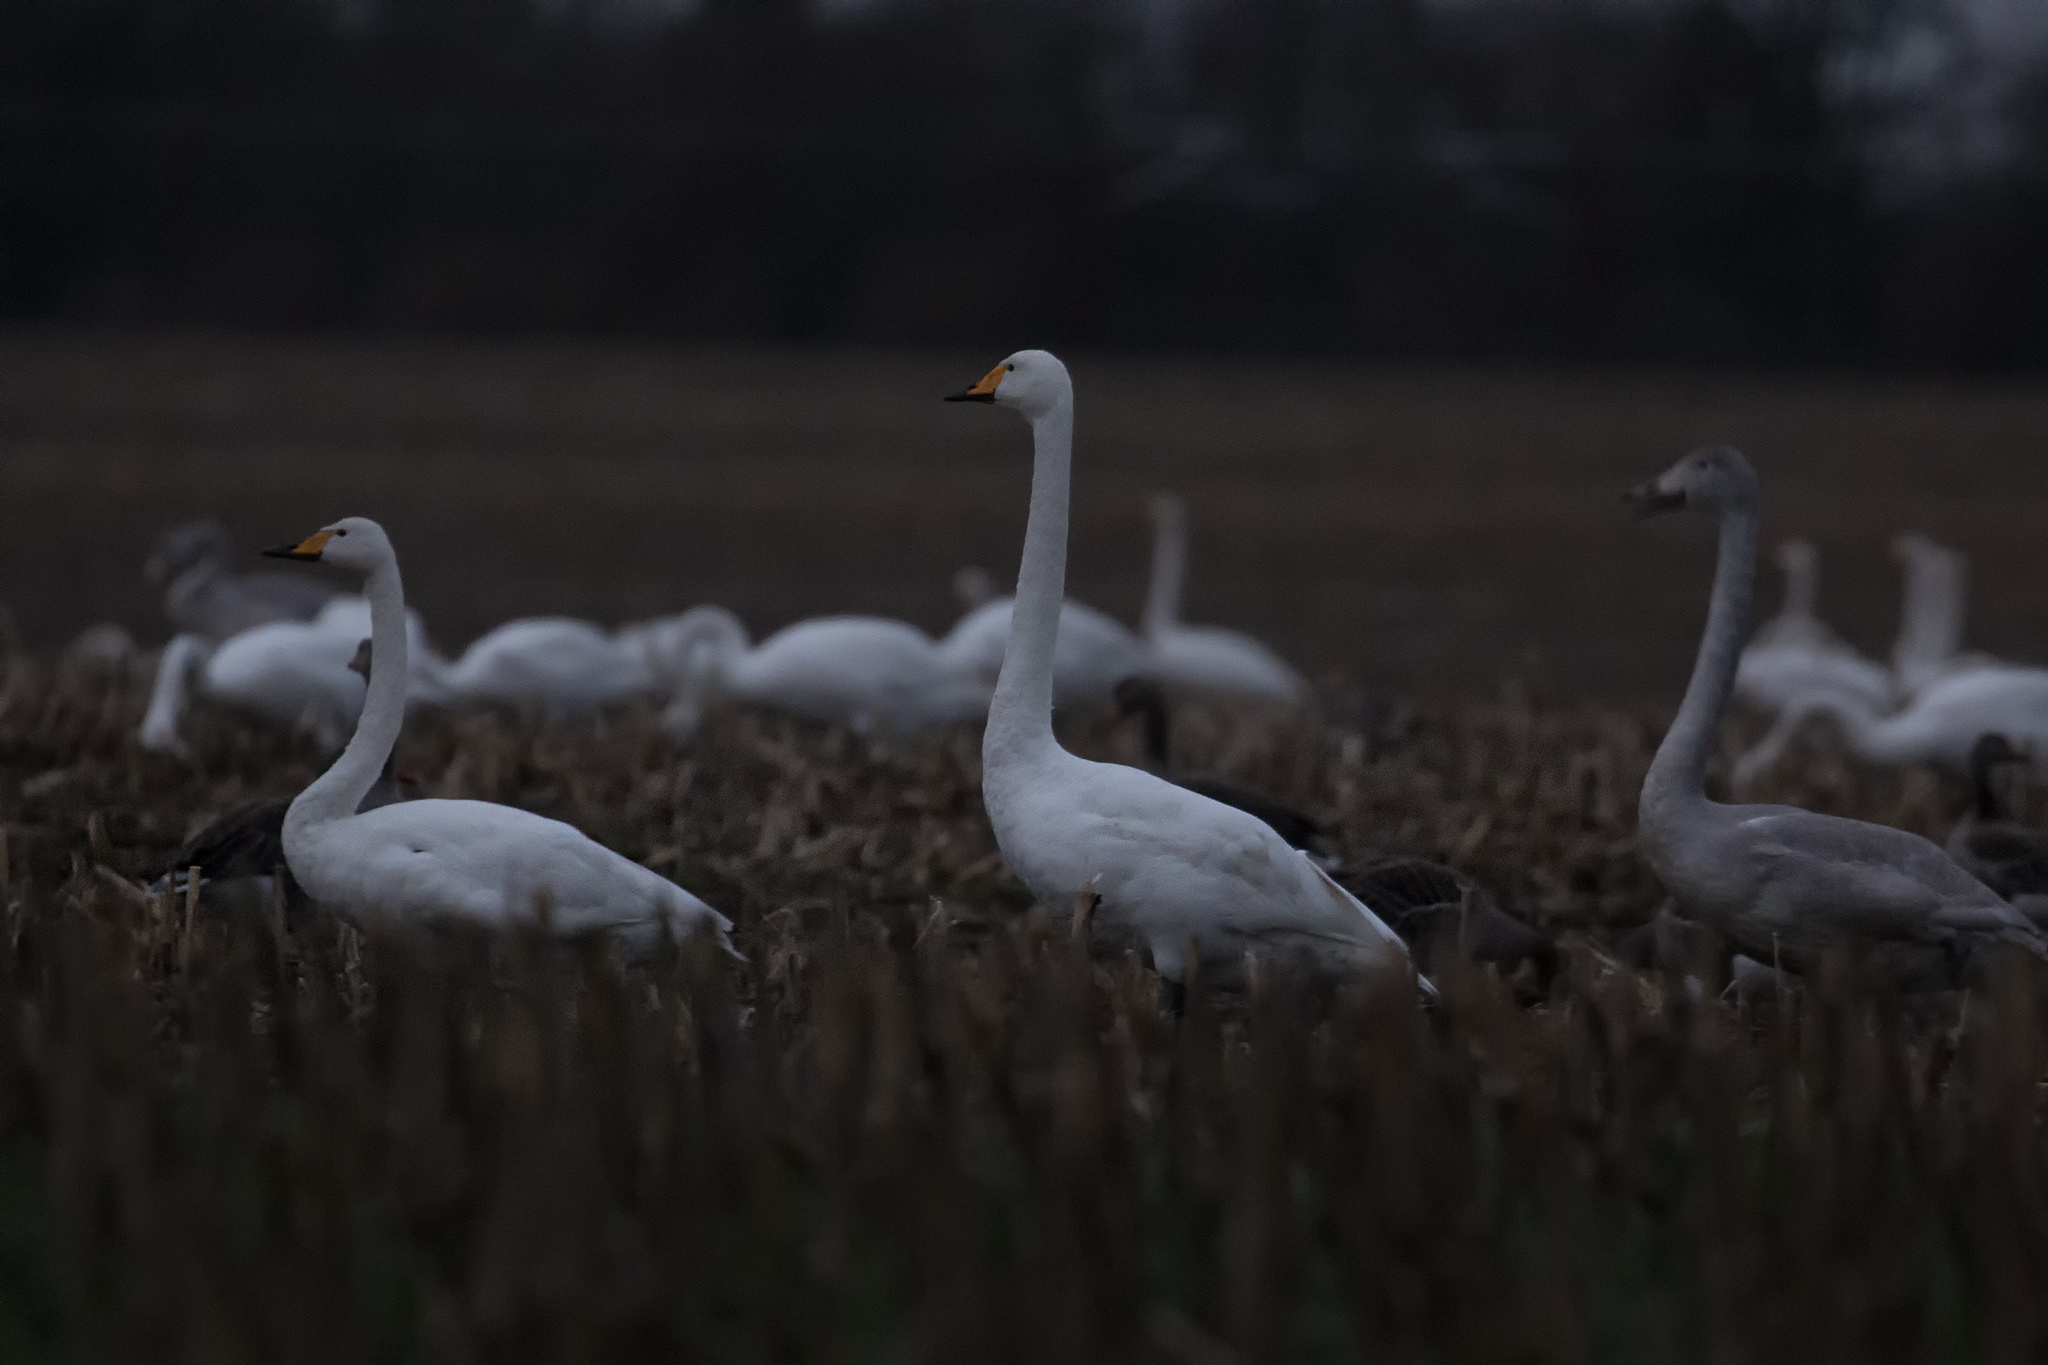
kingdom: Animalia
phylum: Chordata
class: Aves
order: Anseriformes
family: Anatidae
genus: Cygnus
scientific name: Cygnus cygnus
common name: Whooper swan
